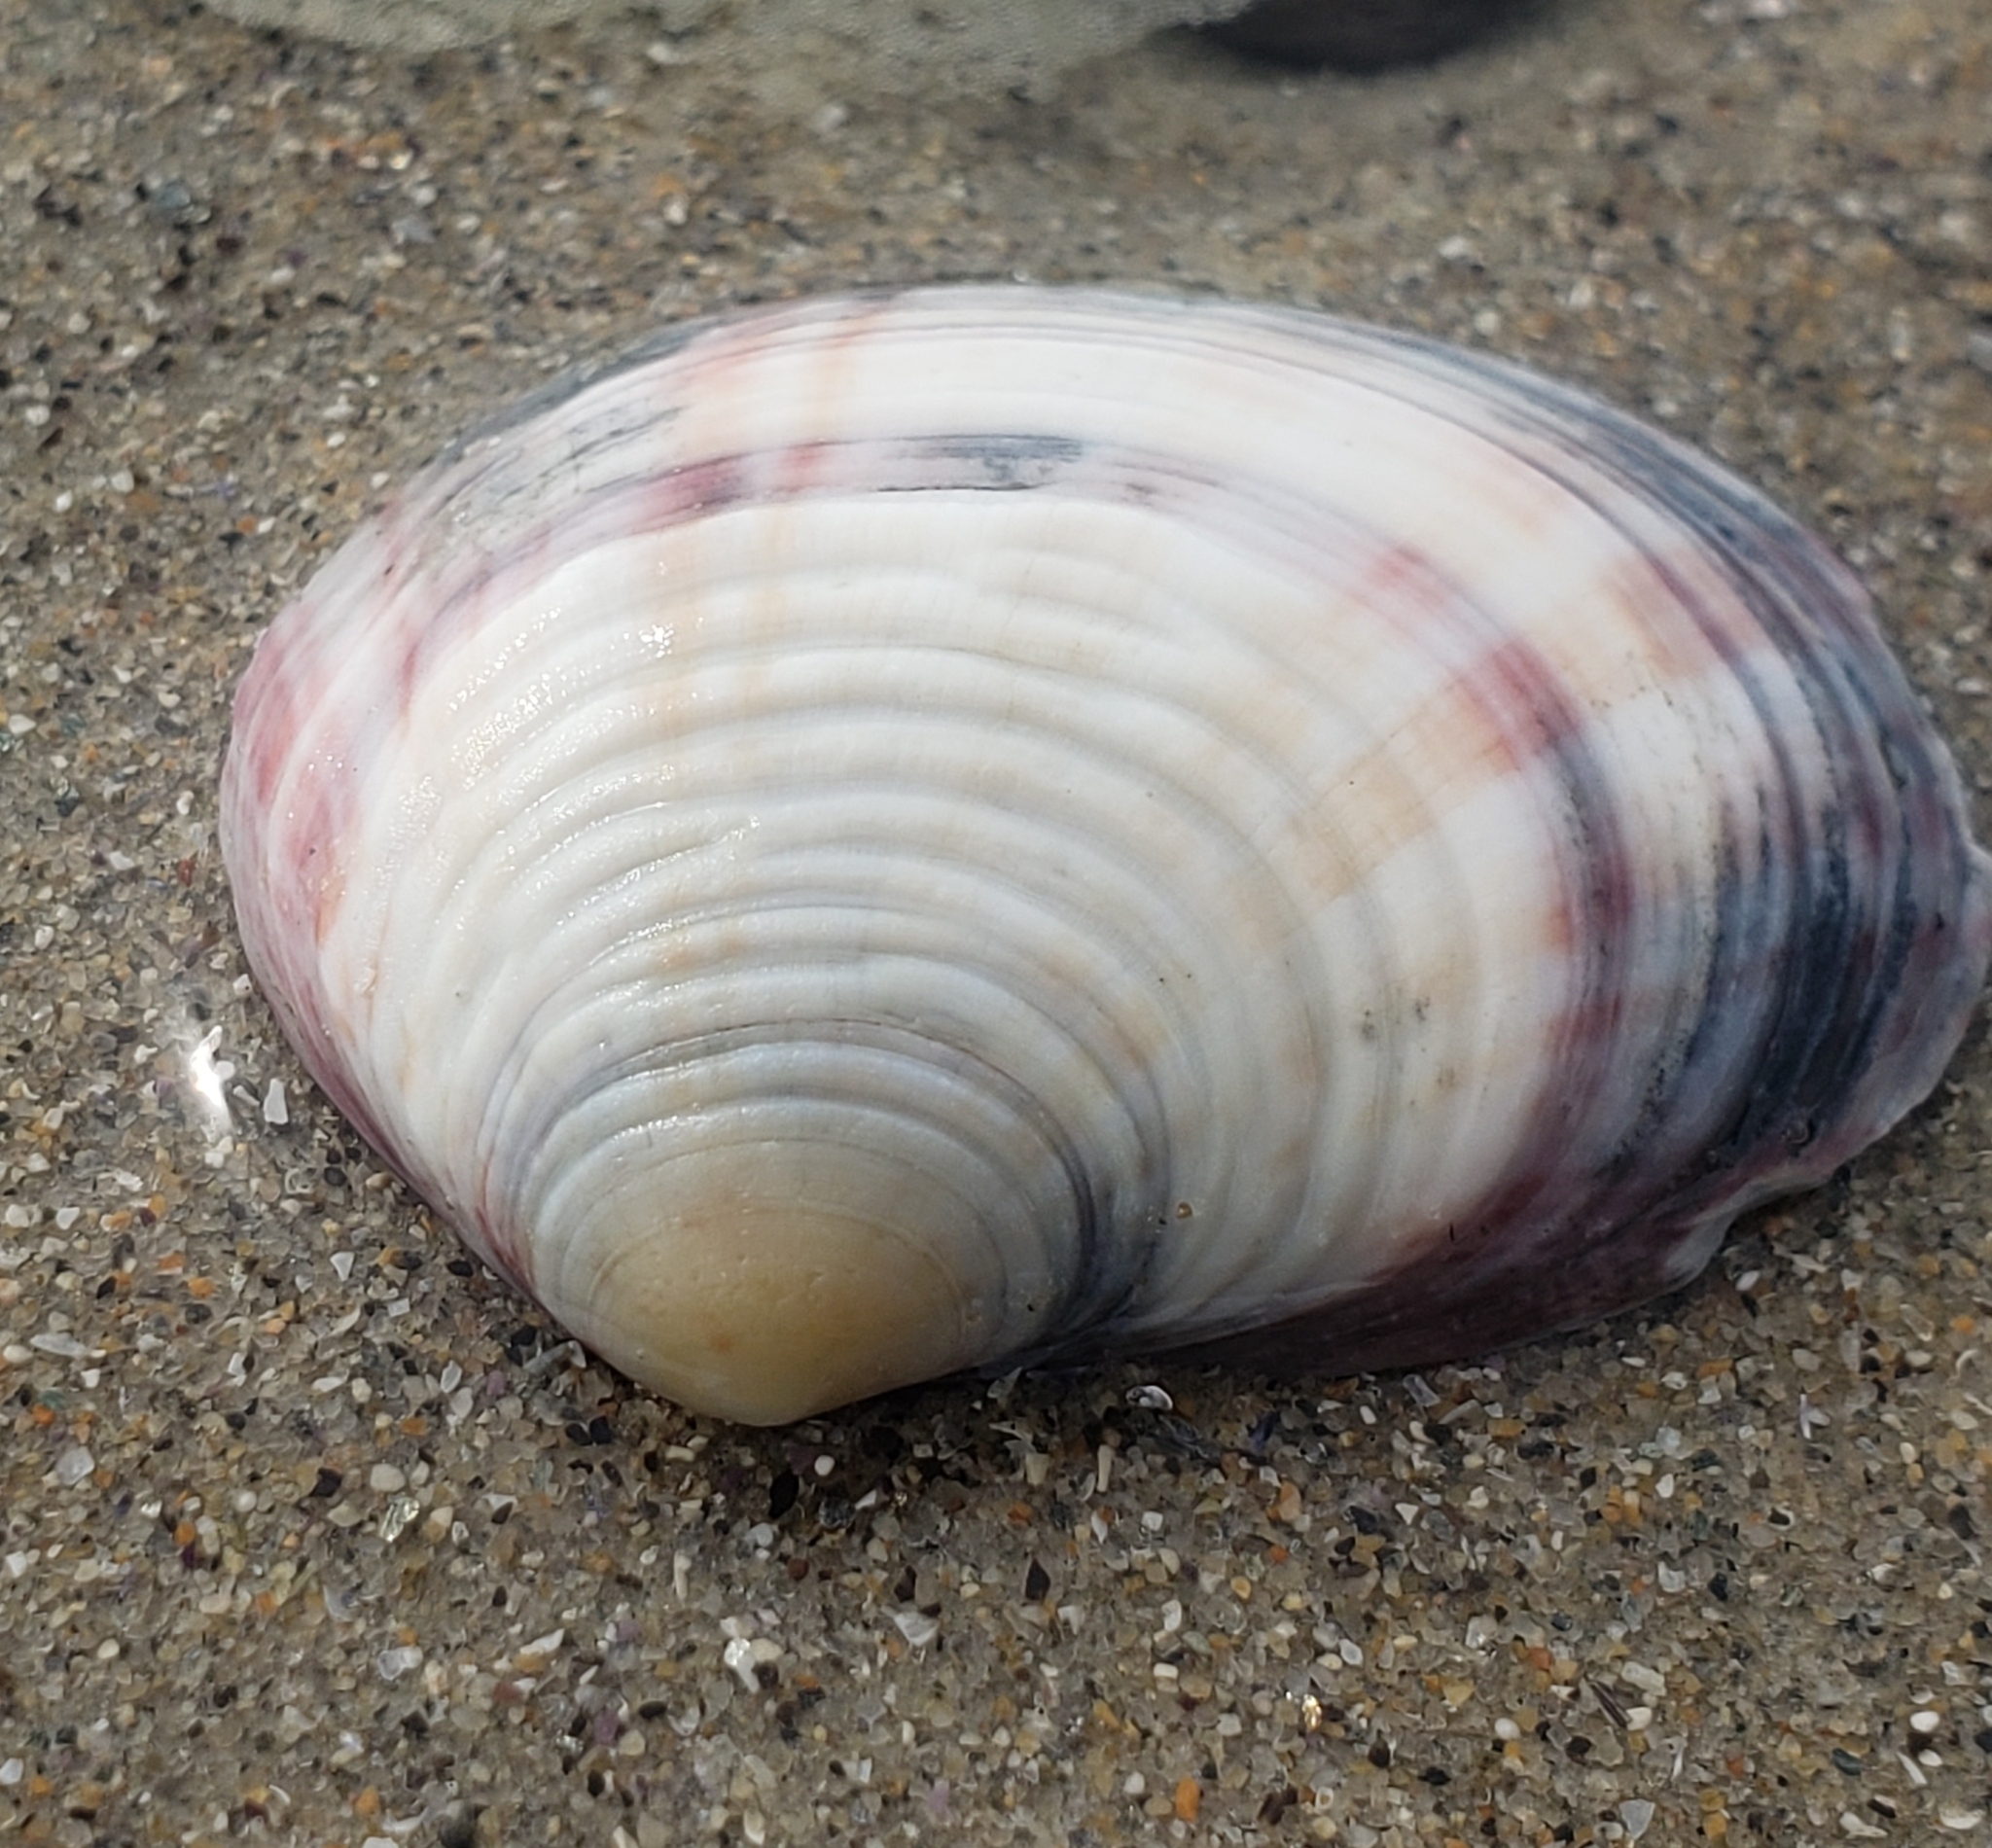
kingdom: Animalia
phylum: Mollusca
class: Bivalvia
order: Cardiida
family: Semelidae
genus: Semele
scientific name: Semele decisa
